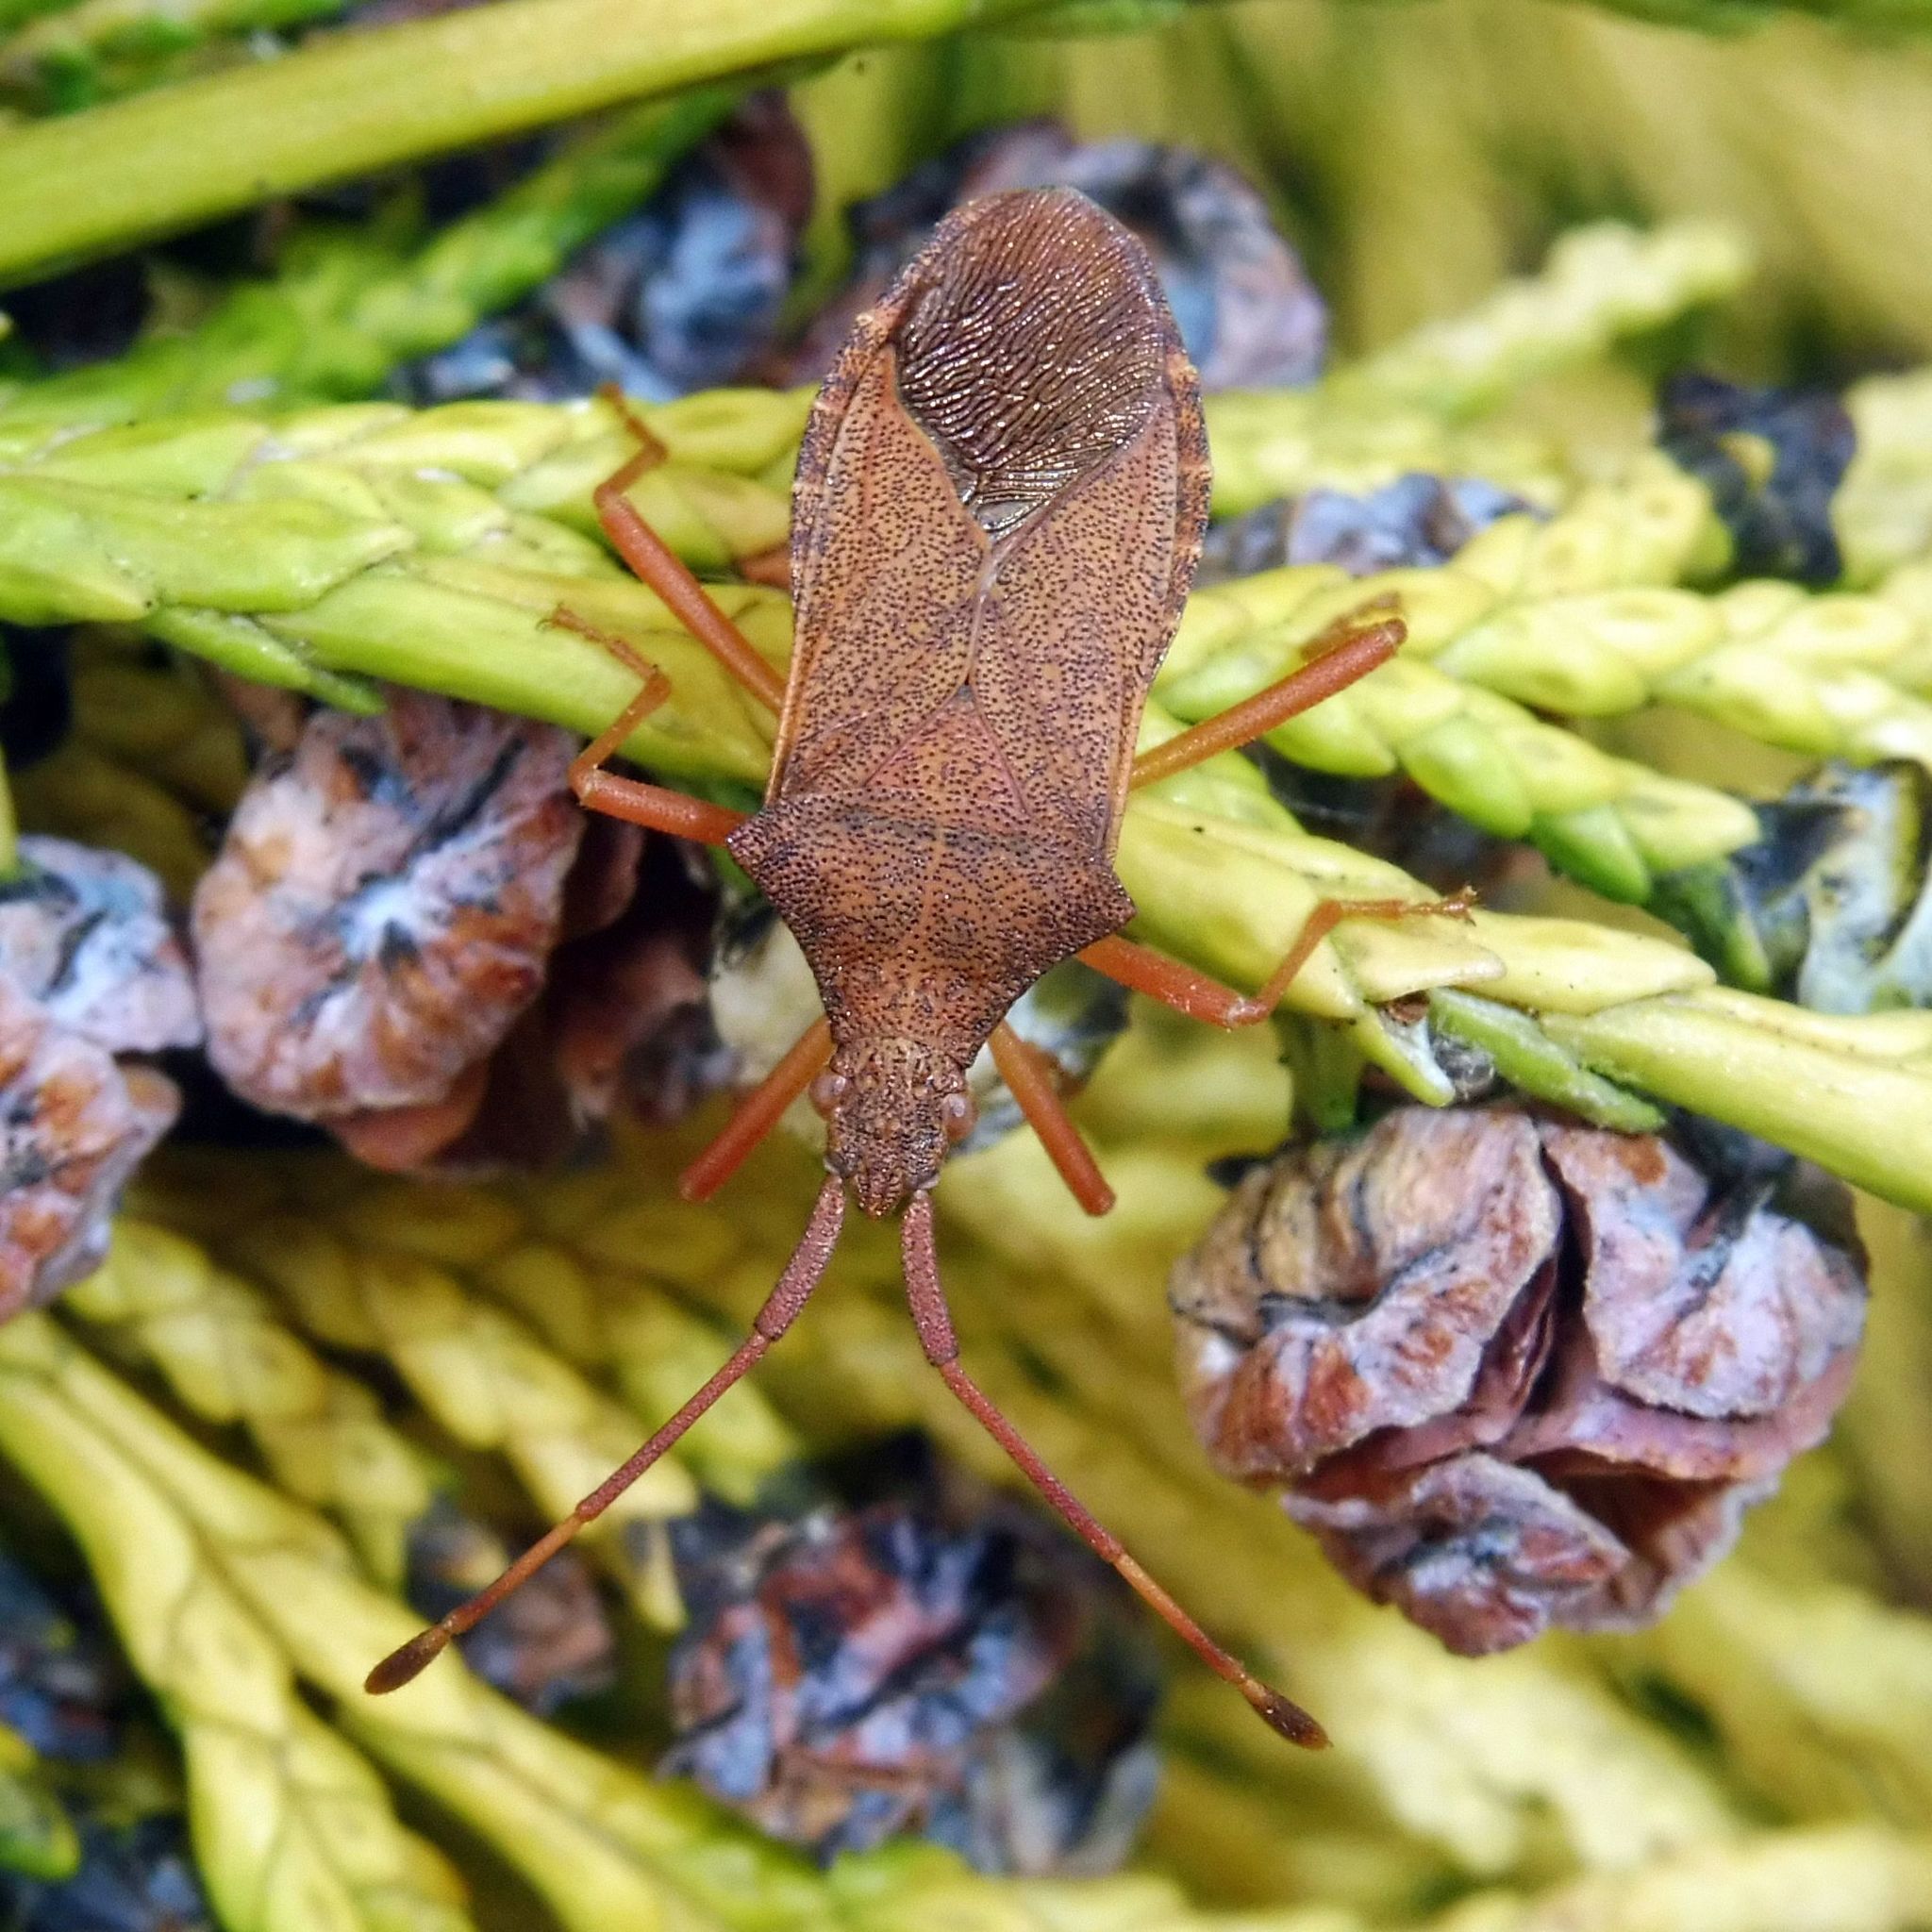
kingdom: Animalia
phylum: Arthropoda
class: Insecta
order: Hemiptera
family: Coreidae
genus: Gonocerus
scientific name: Gonocerus acuteangulatus
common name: Box bug
